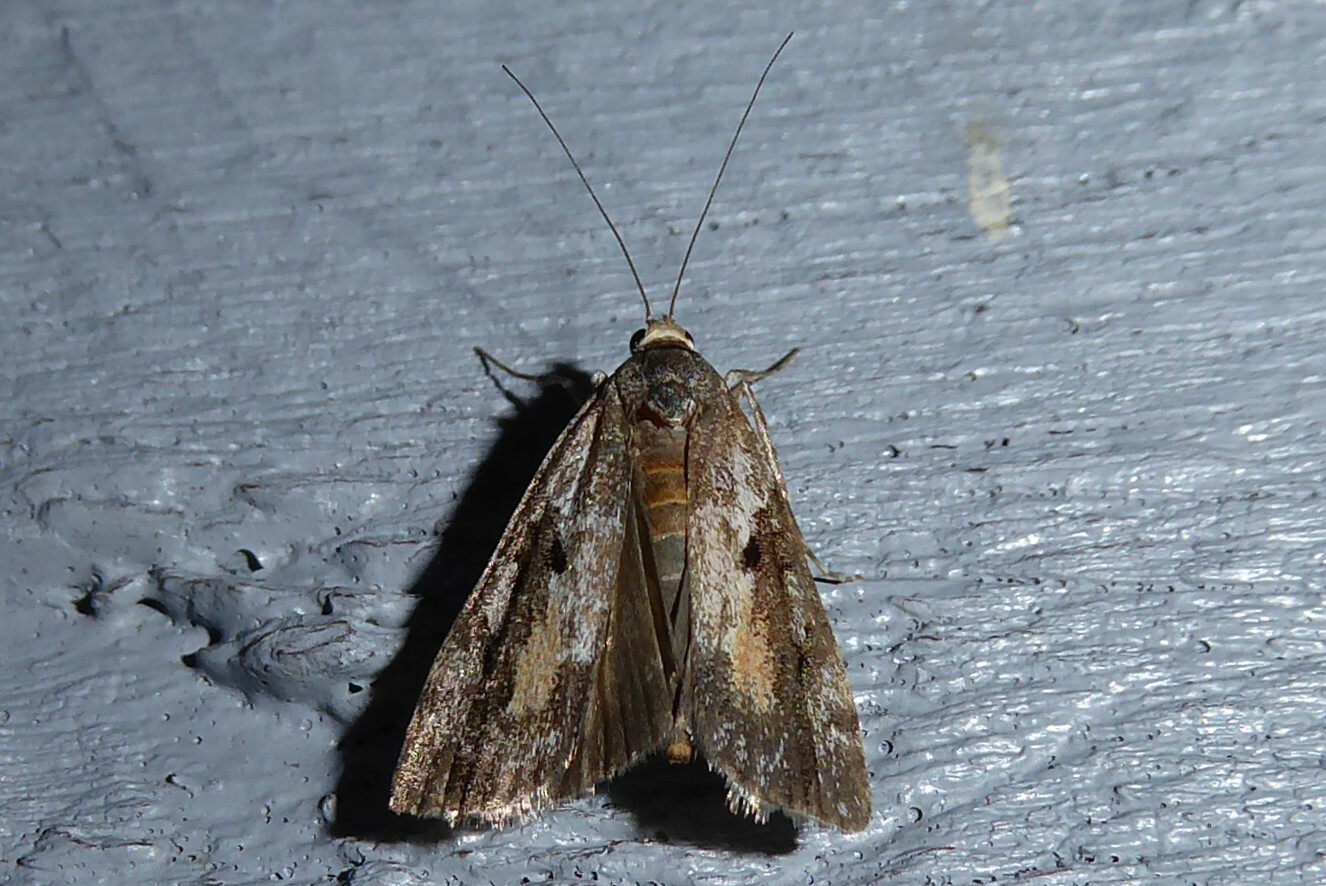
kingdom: Animalia
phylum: Arthropoda
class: Insecta
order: Lepidoptera
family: Crambidae
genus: Eudonia
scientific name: Eudonia submarginalis
